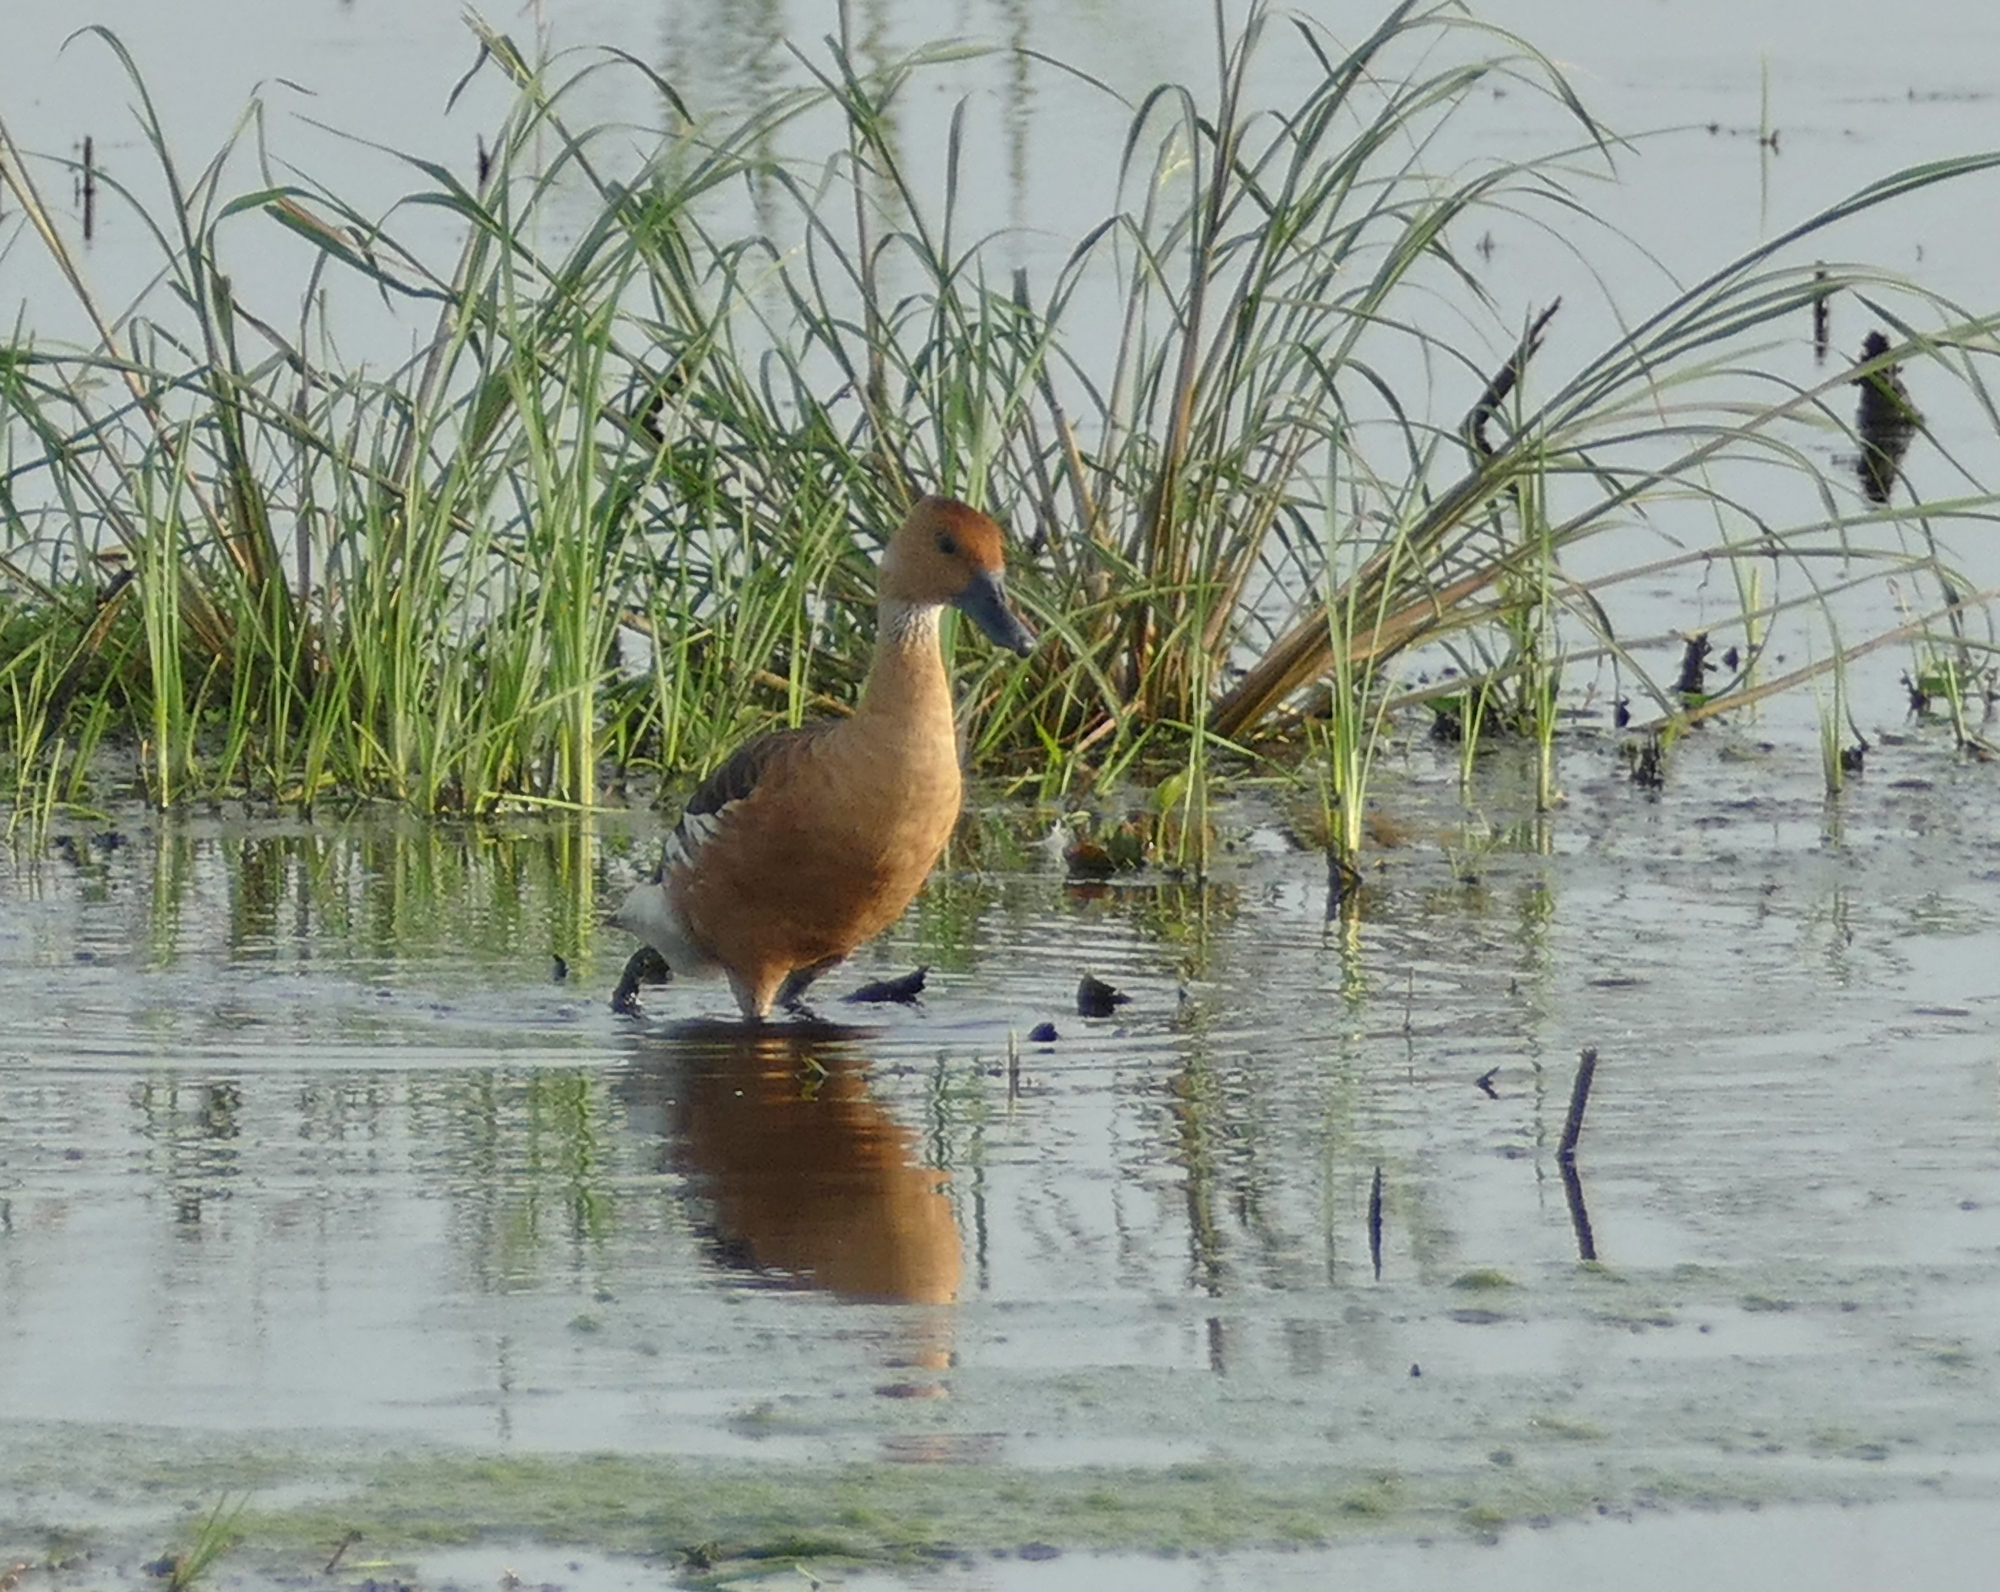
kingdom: Animalia
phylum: Chordata
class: Aves
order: Anseriformes
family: Anatidae
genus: Dendrocygna
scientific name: Dendrocygna bicolor
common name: Fulvous whistling duck
